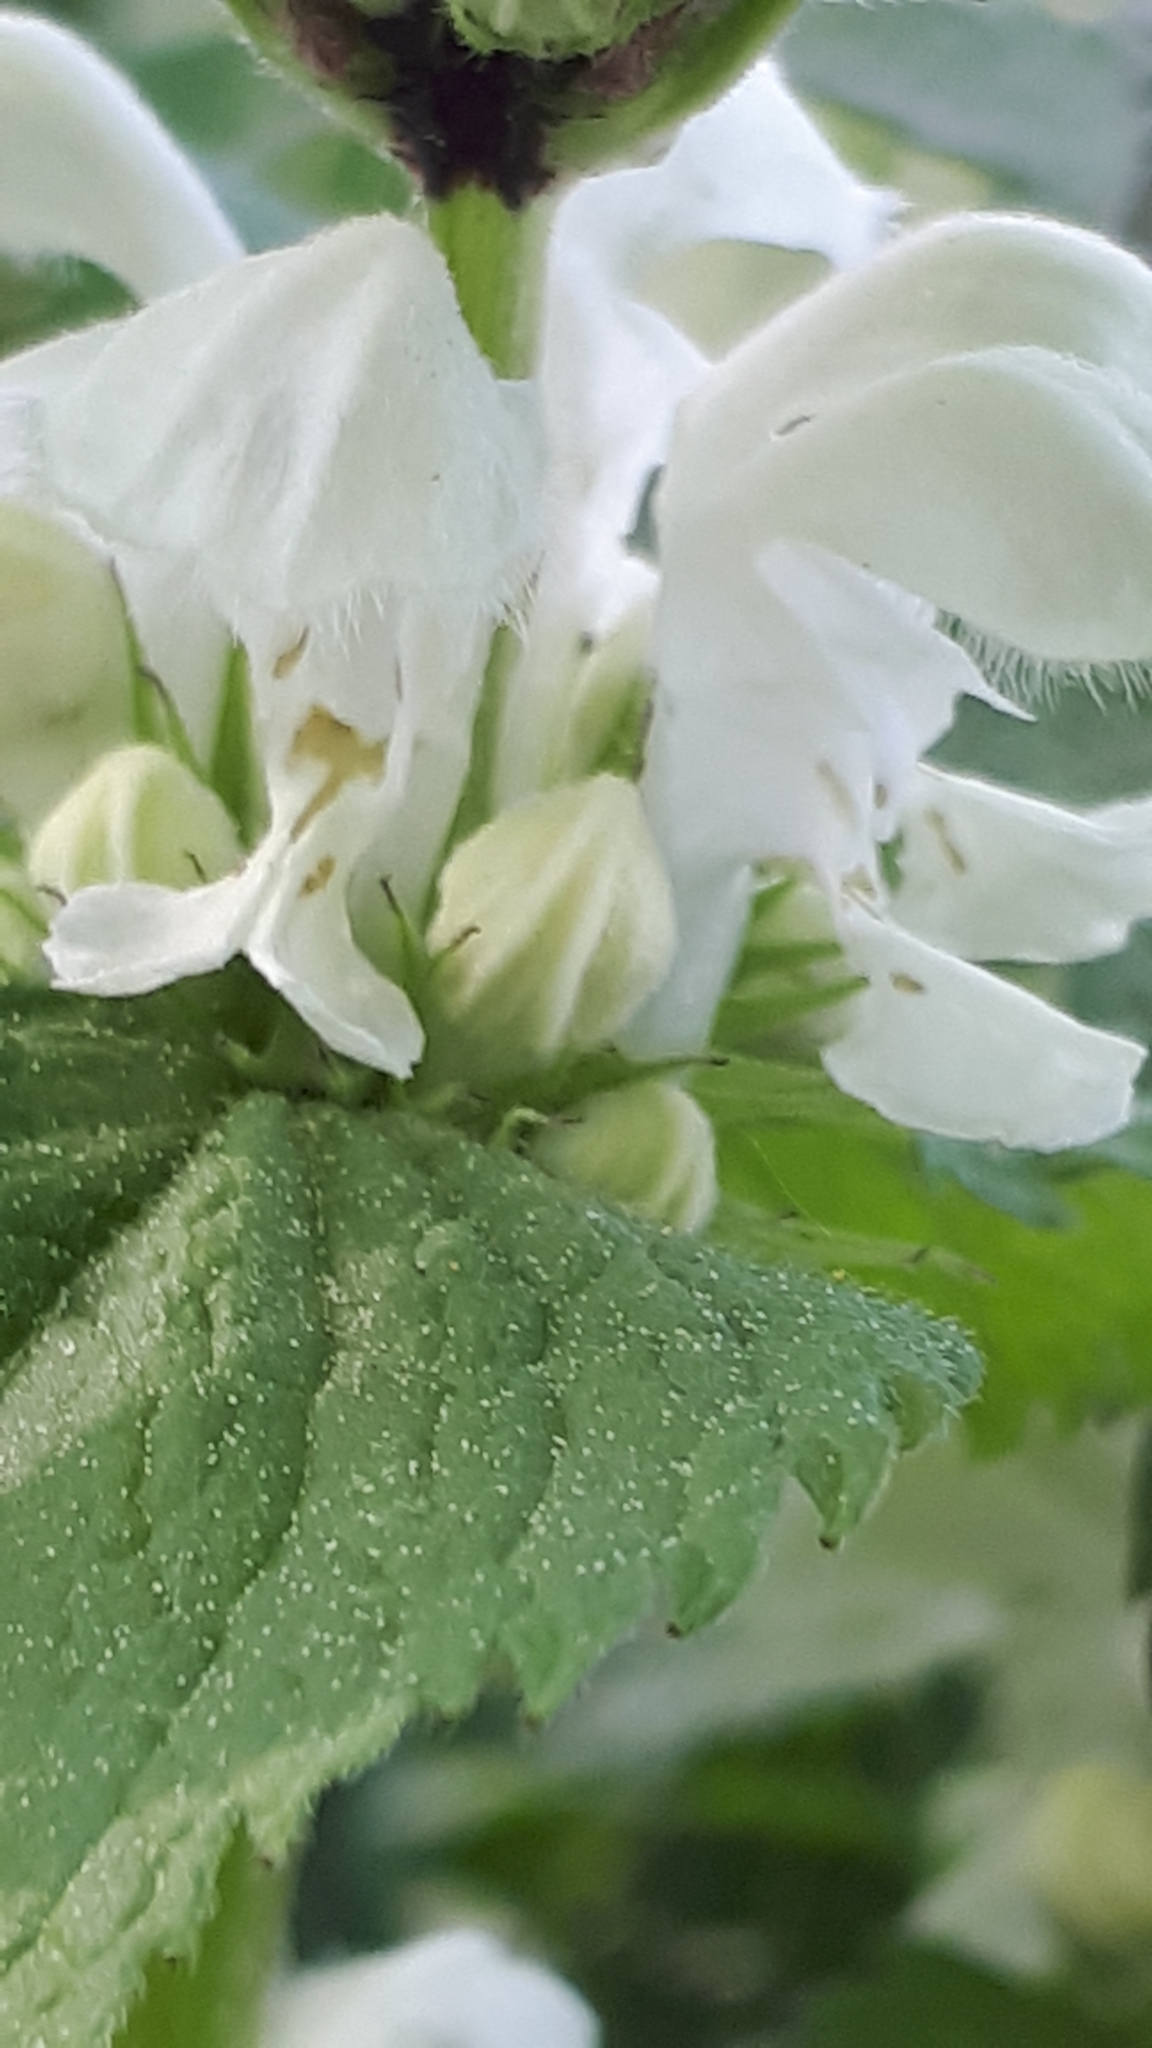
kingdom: Plantae
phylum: Tracheophyta
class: Magnoliopsida
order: Lamiales
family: Lamiaceae
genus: Lamium
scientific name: Lamium album
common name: White dead-nettle
